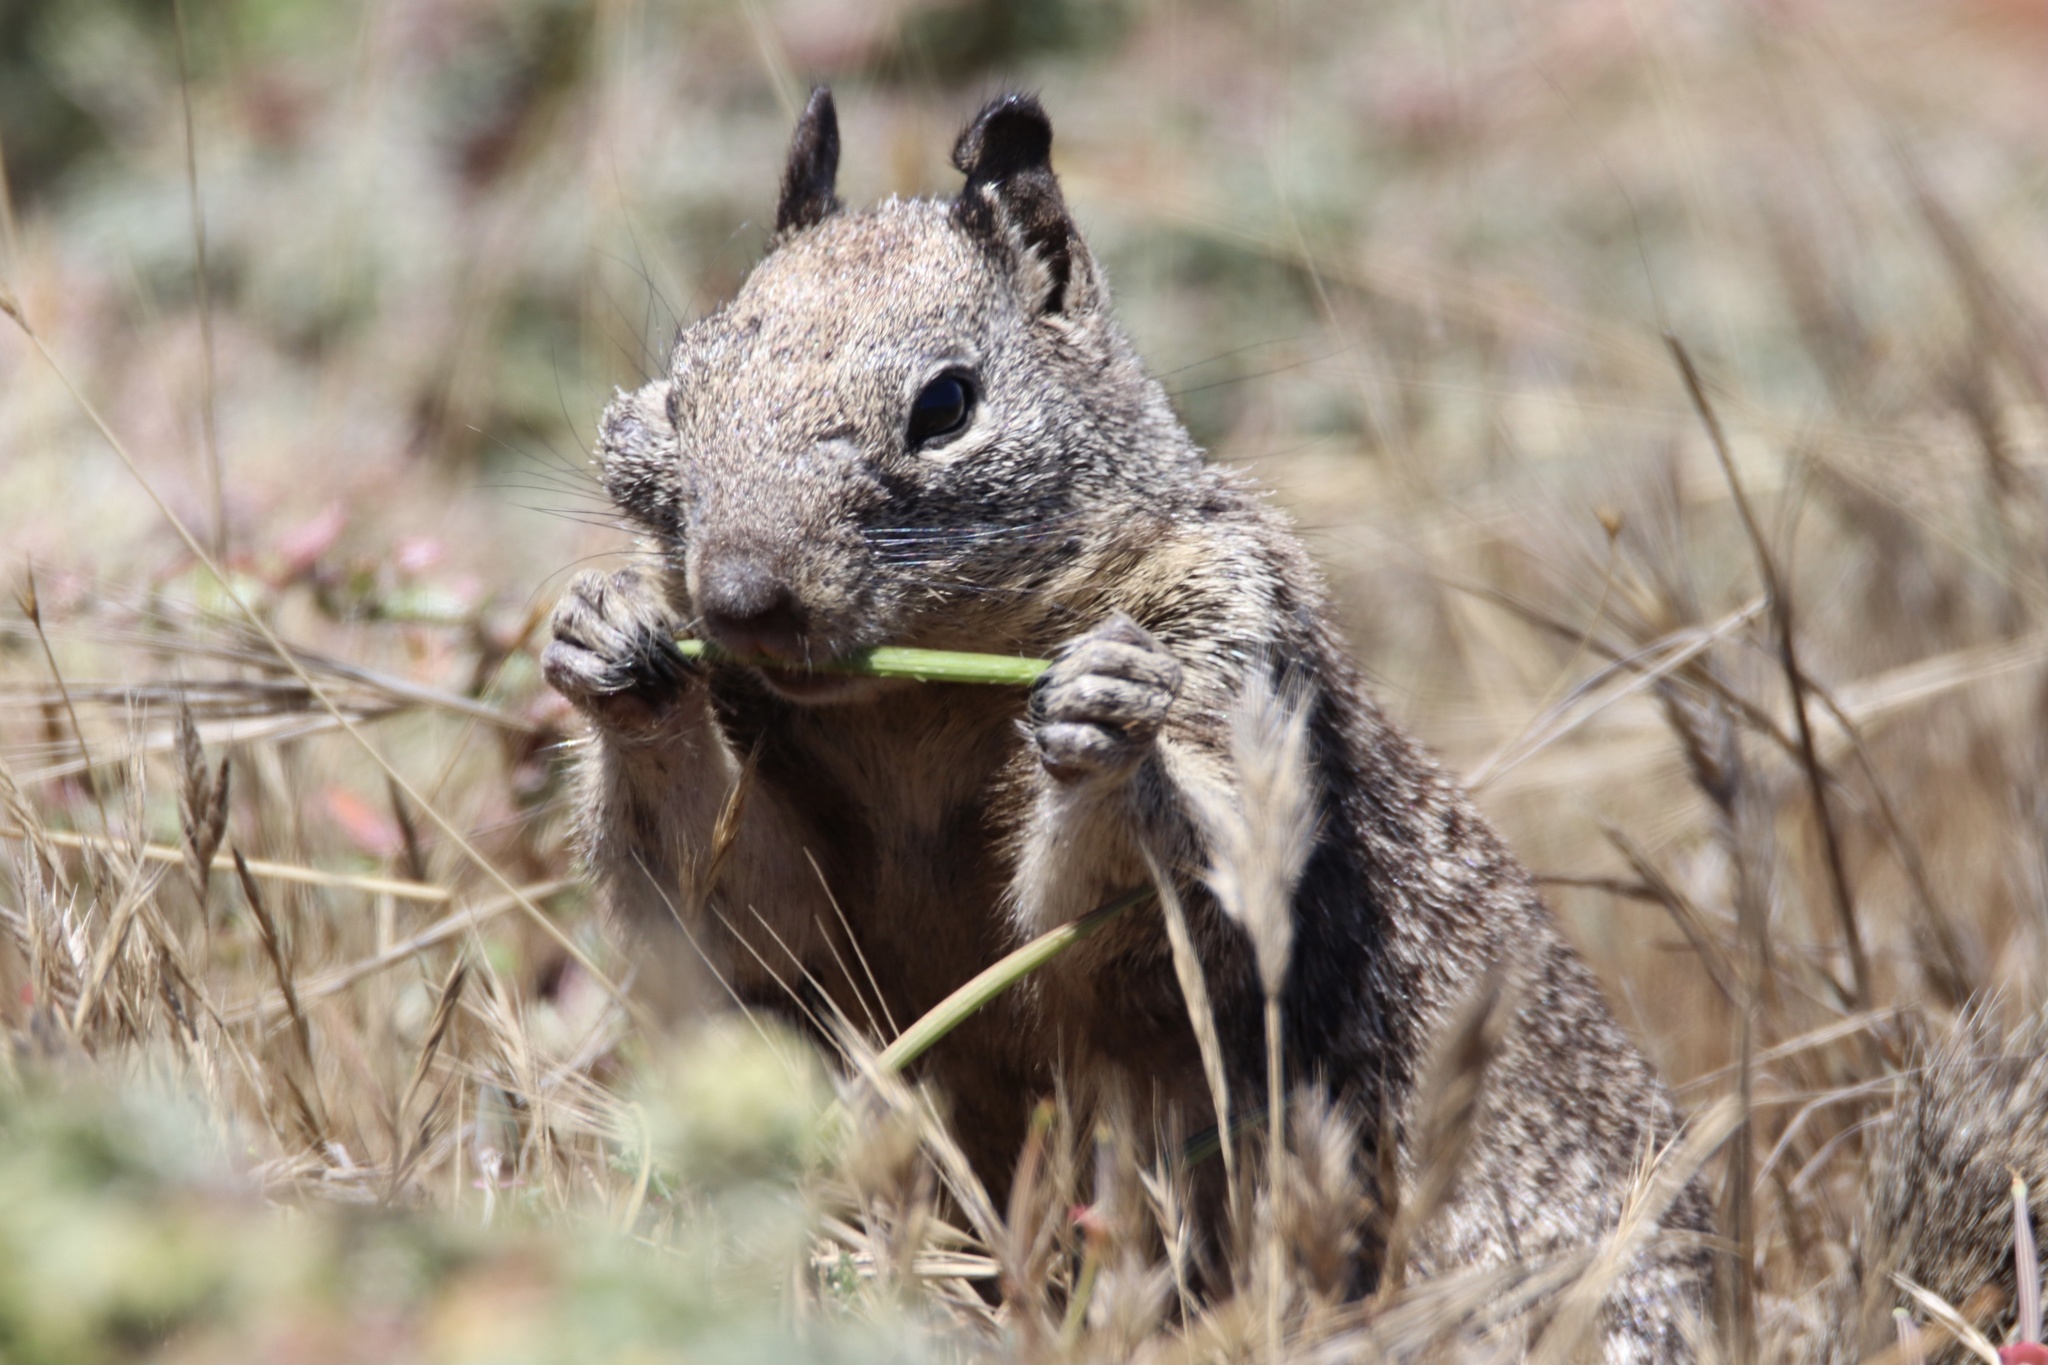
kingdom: Animalia
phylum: Chordata
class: Mammalia
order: Rodentia
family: Sciuridae
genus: Otospermophilus
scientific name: Otospermophilus beecheyi
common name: California ground squirrel
